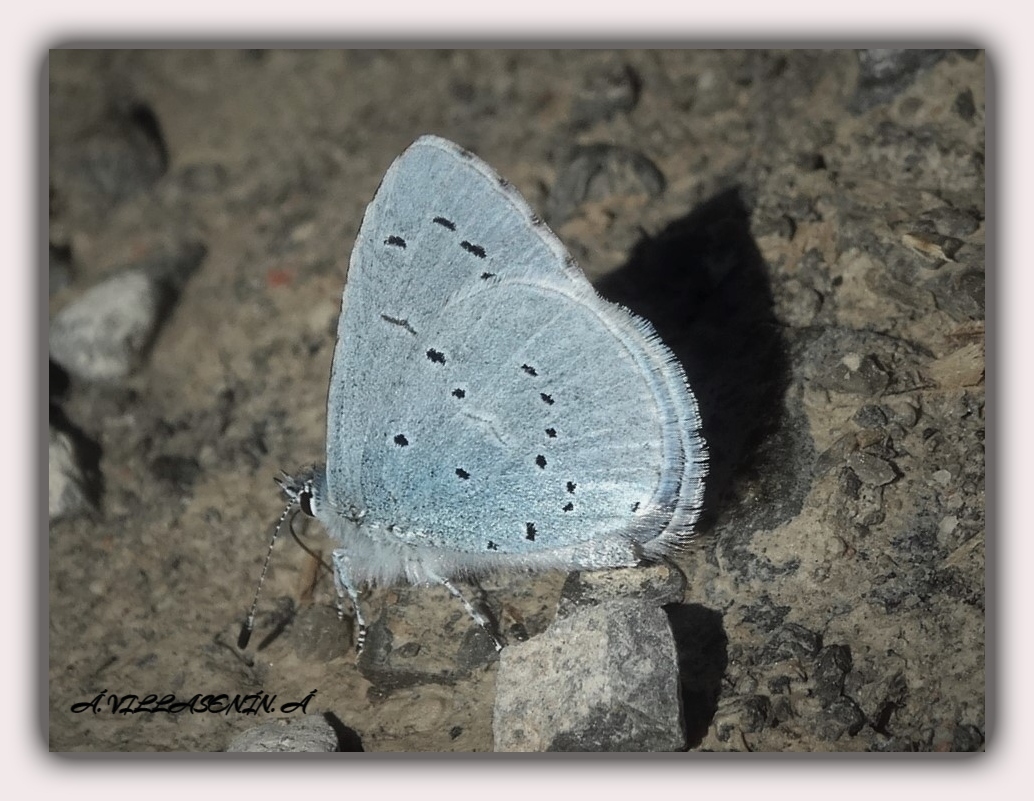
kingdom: Animalia
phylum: Arthropoda
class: Insecta
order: Lepidoptera
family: Lycaenidae
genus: Celastrina
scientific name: Celastrina argiolus
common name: Holly blue
